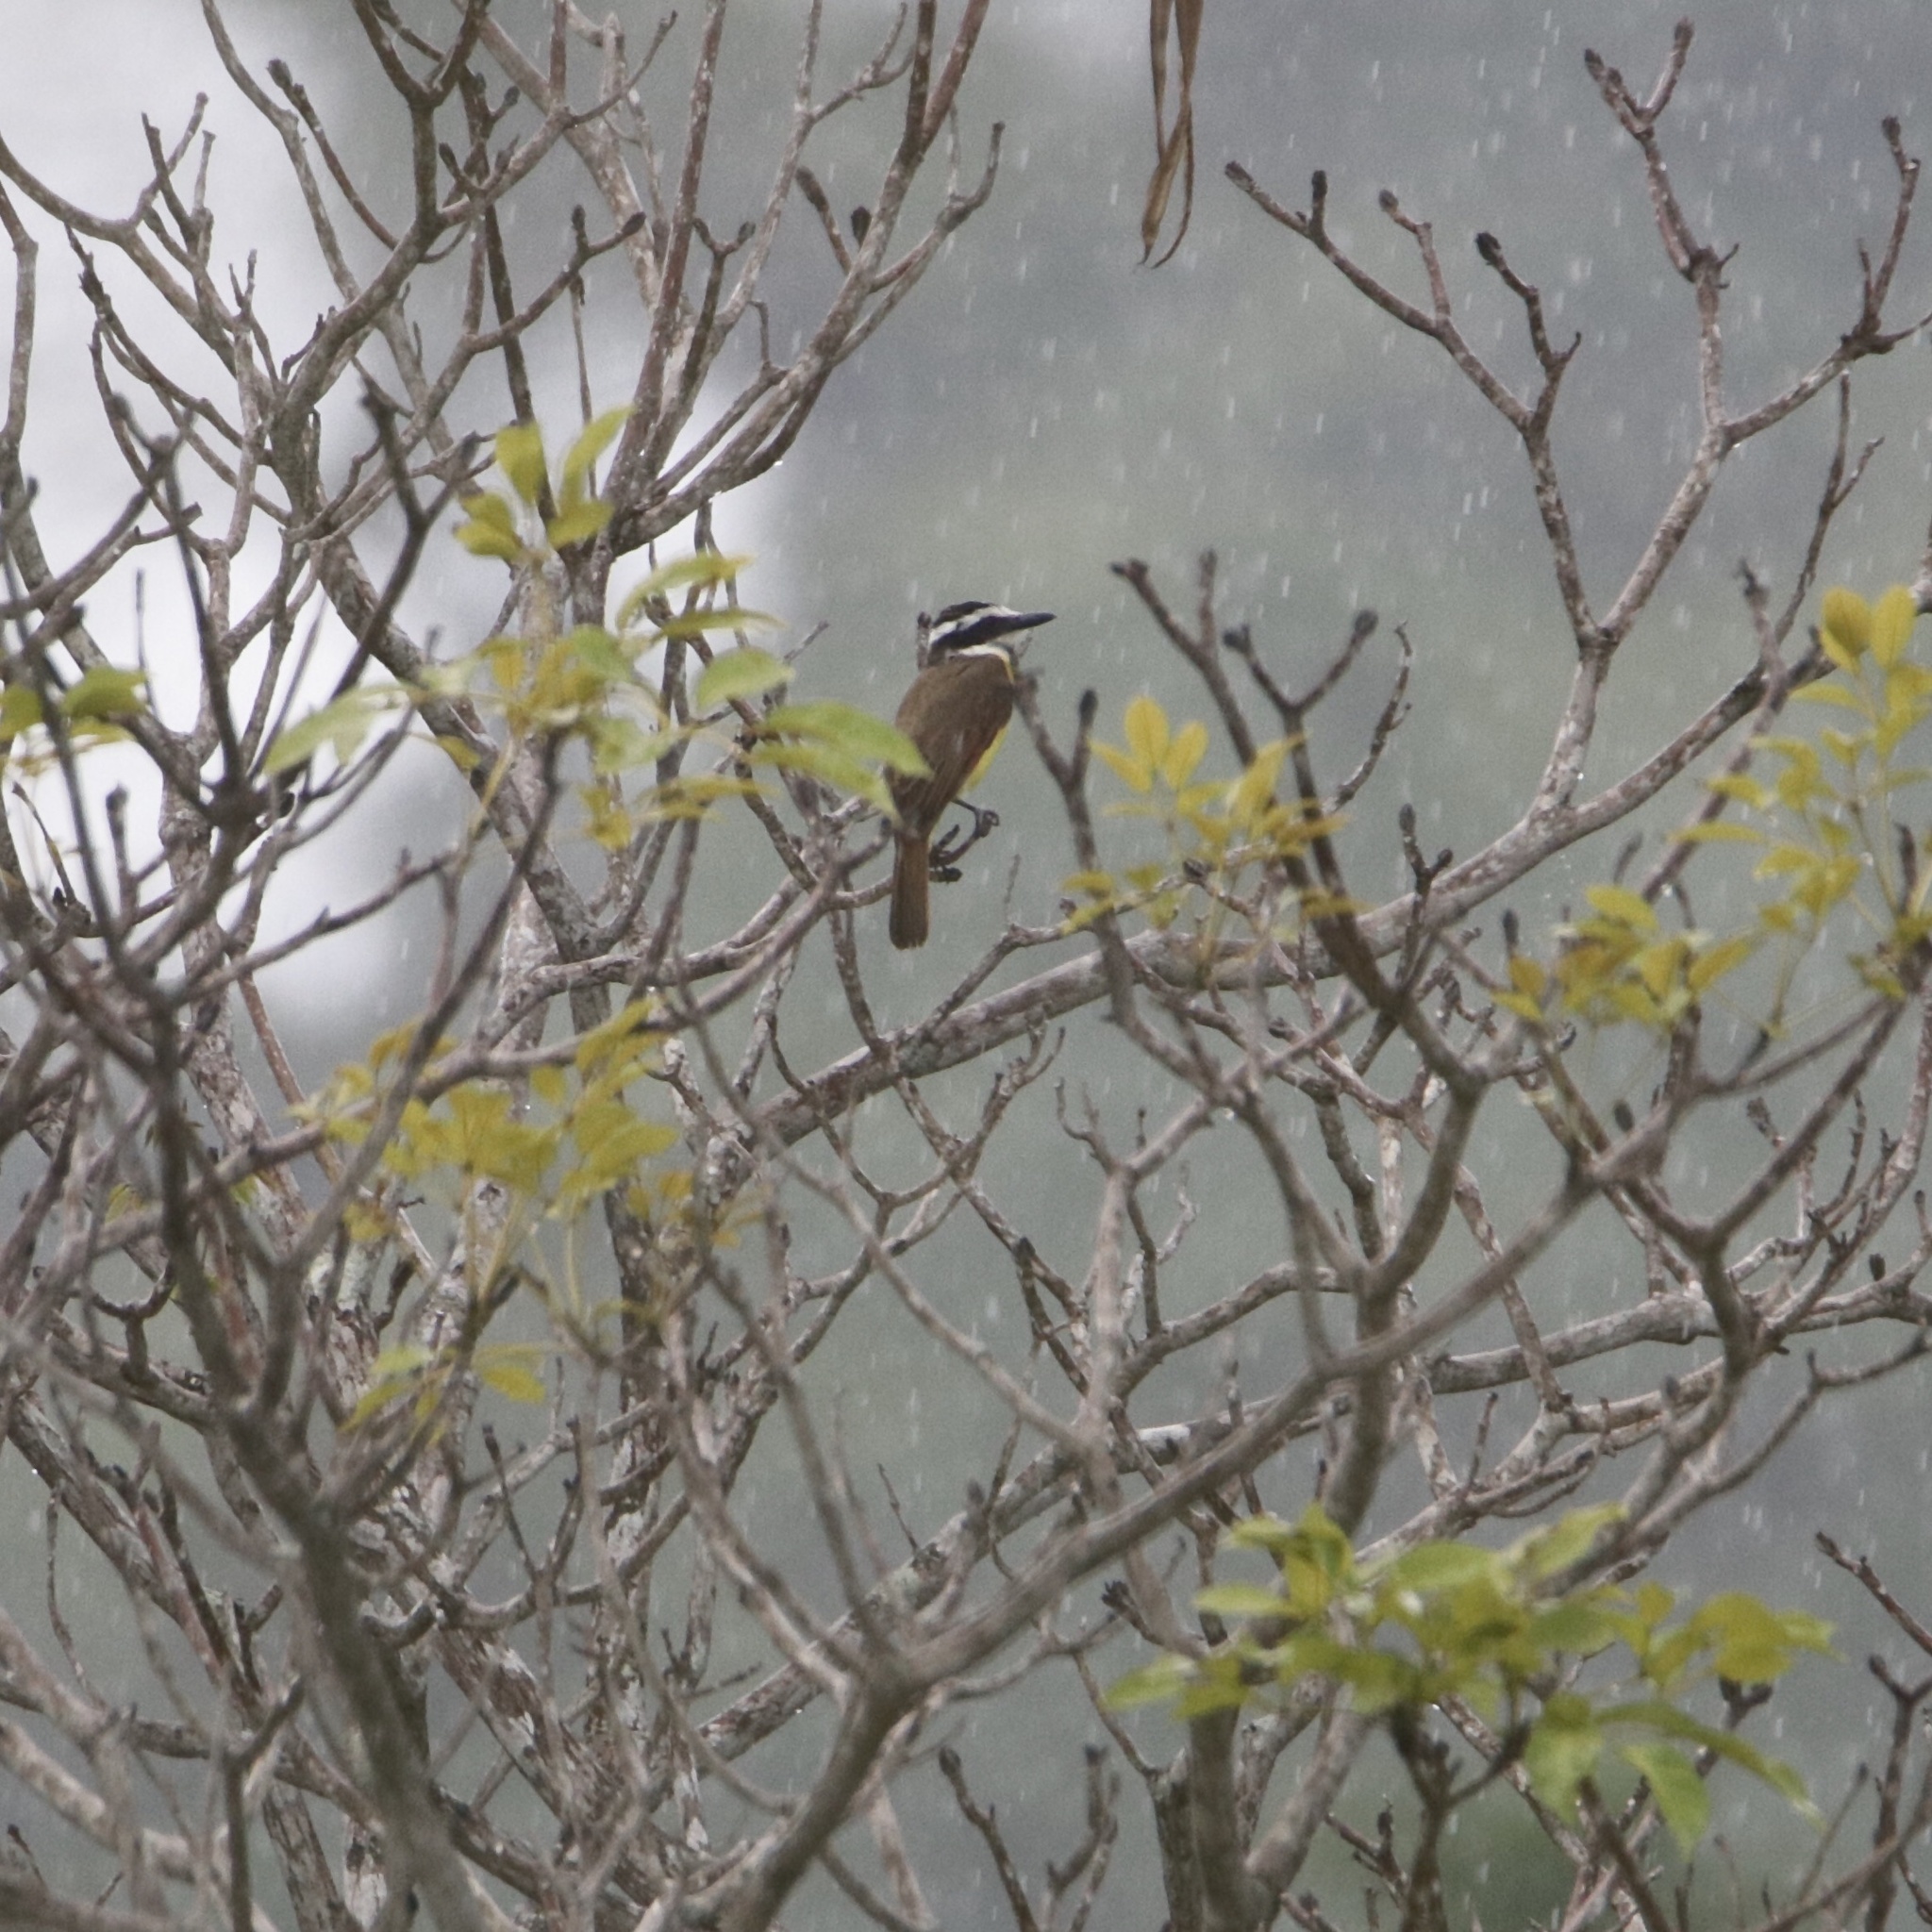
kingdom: Animalia
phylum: Chordata
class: Aves
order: Passeriformes
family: Tyrannidae
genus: Pitangus
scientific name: Pitangus sulphuratus
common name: Great kiskadee
